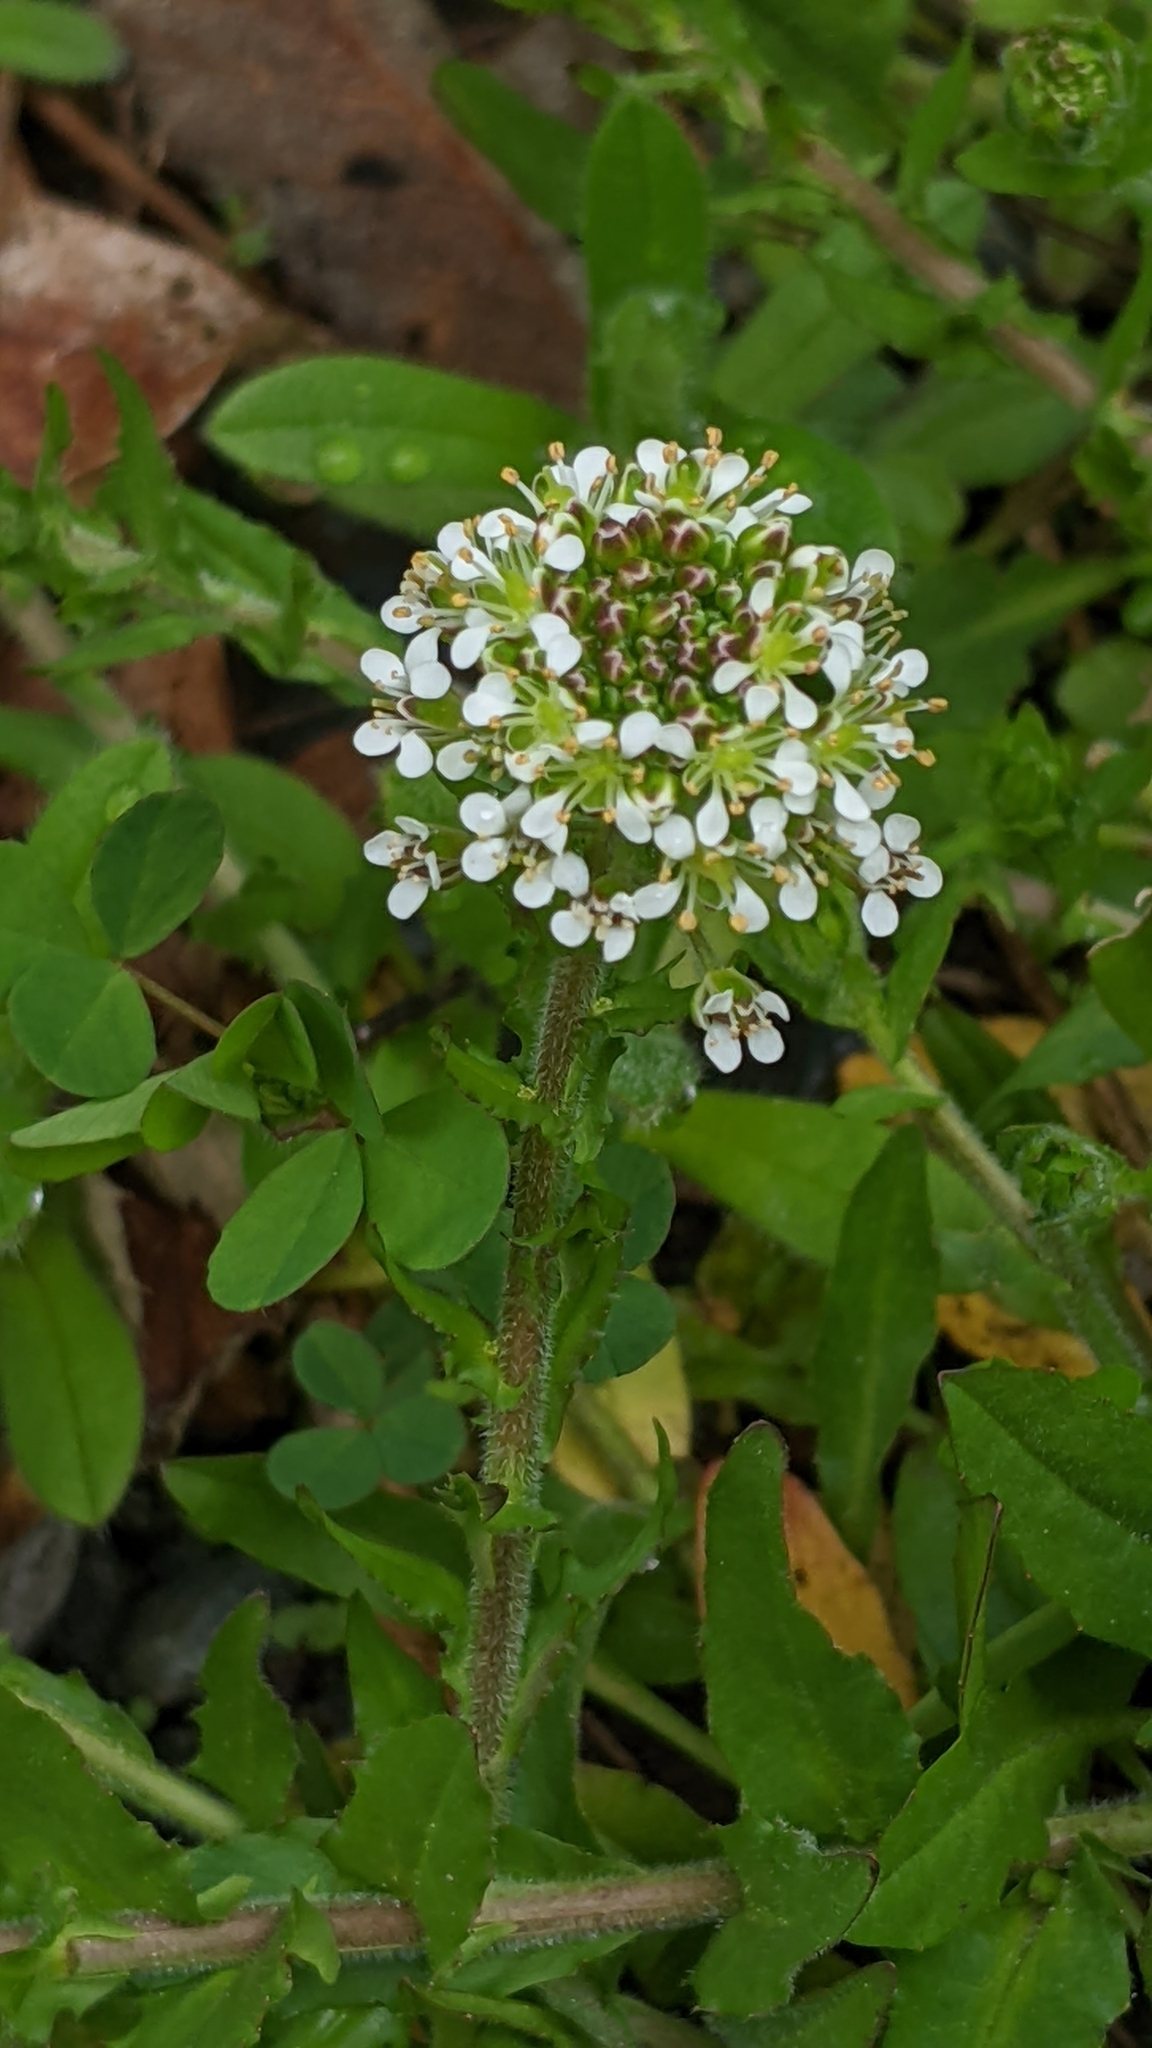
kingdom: Plantae
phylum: Tracheophyta
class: Magnoliopsida
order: Brassicales
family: Brassicaceae
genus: Lepidium
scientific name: Lepidium heterophyllum
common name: Smith's pepperwort
